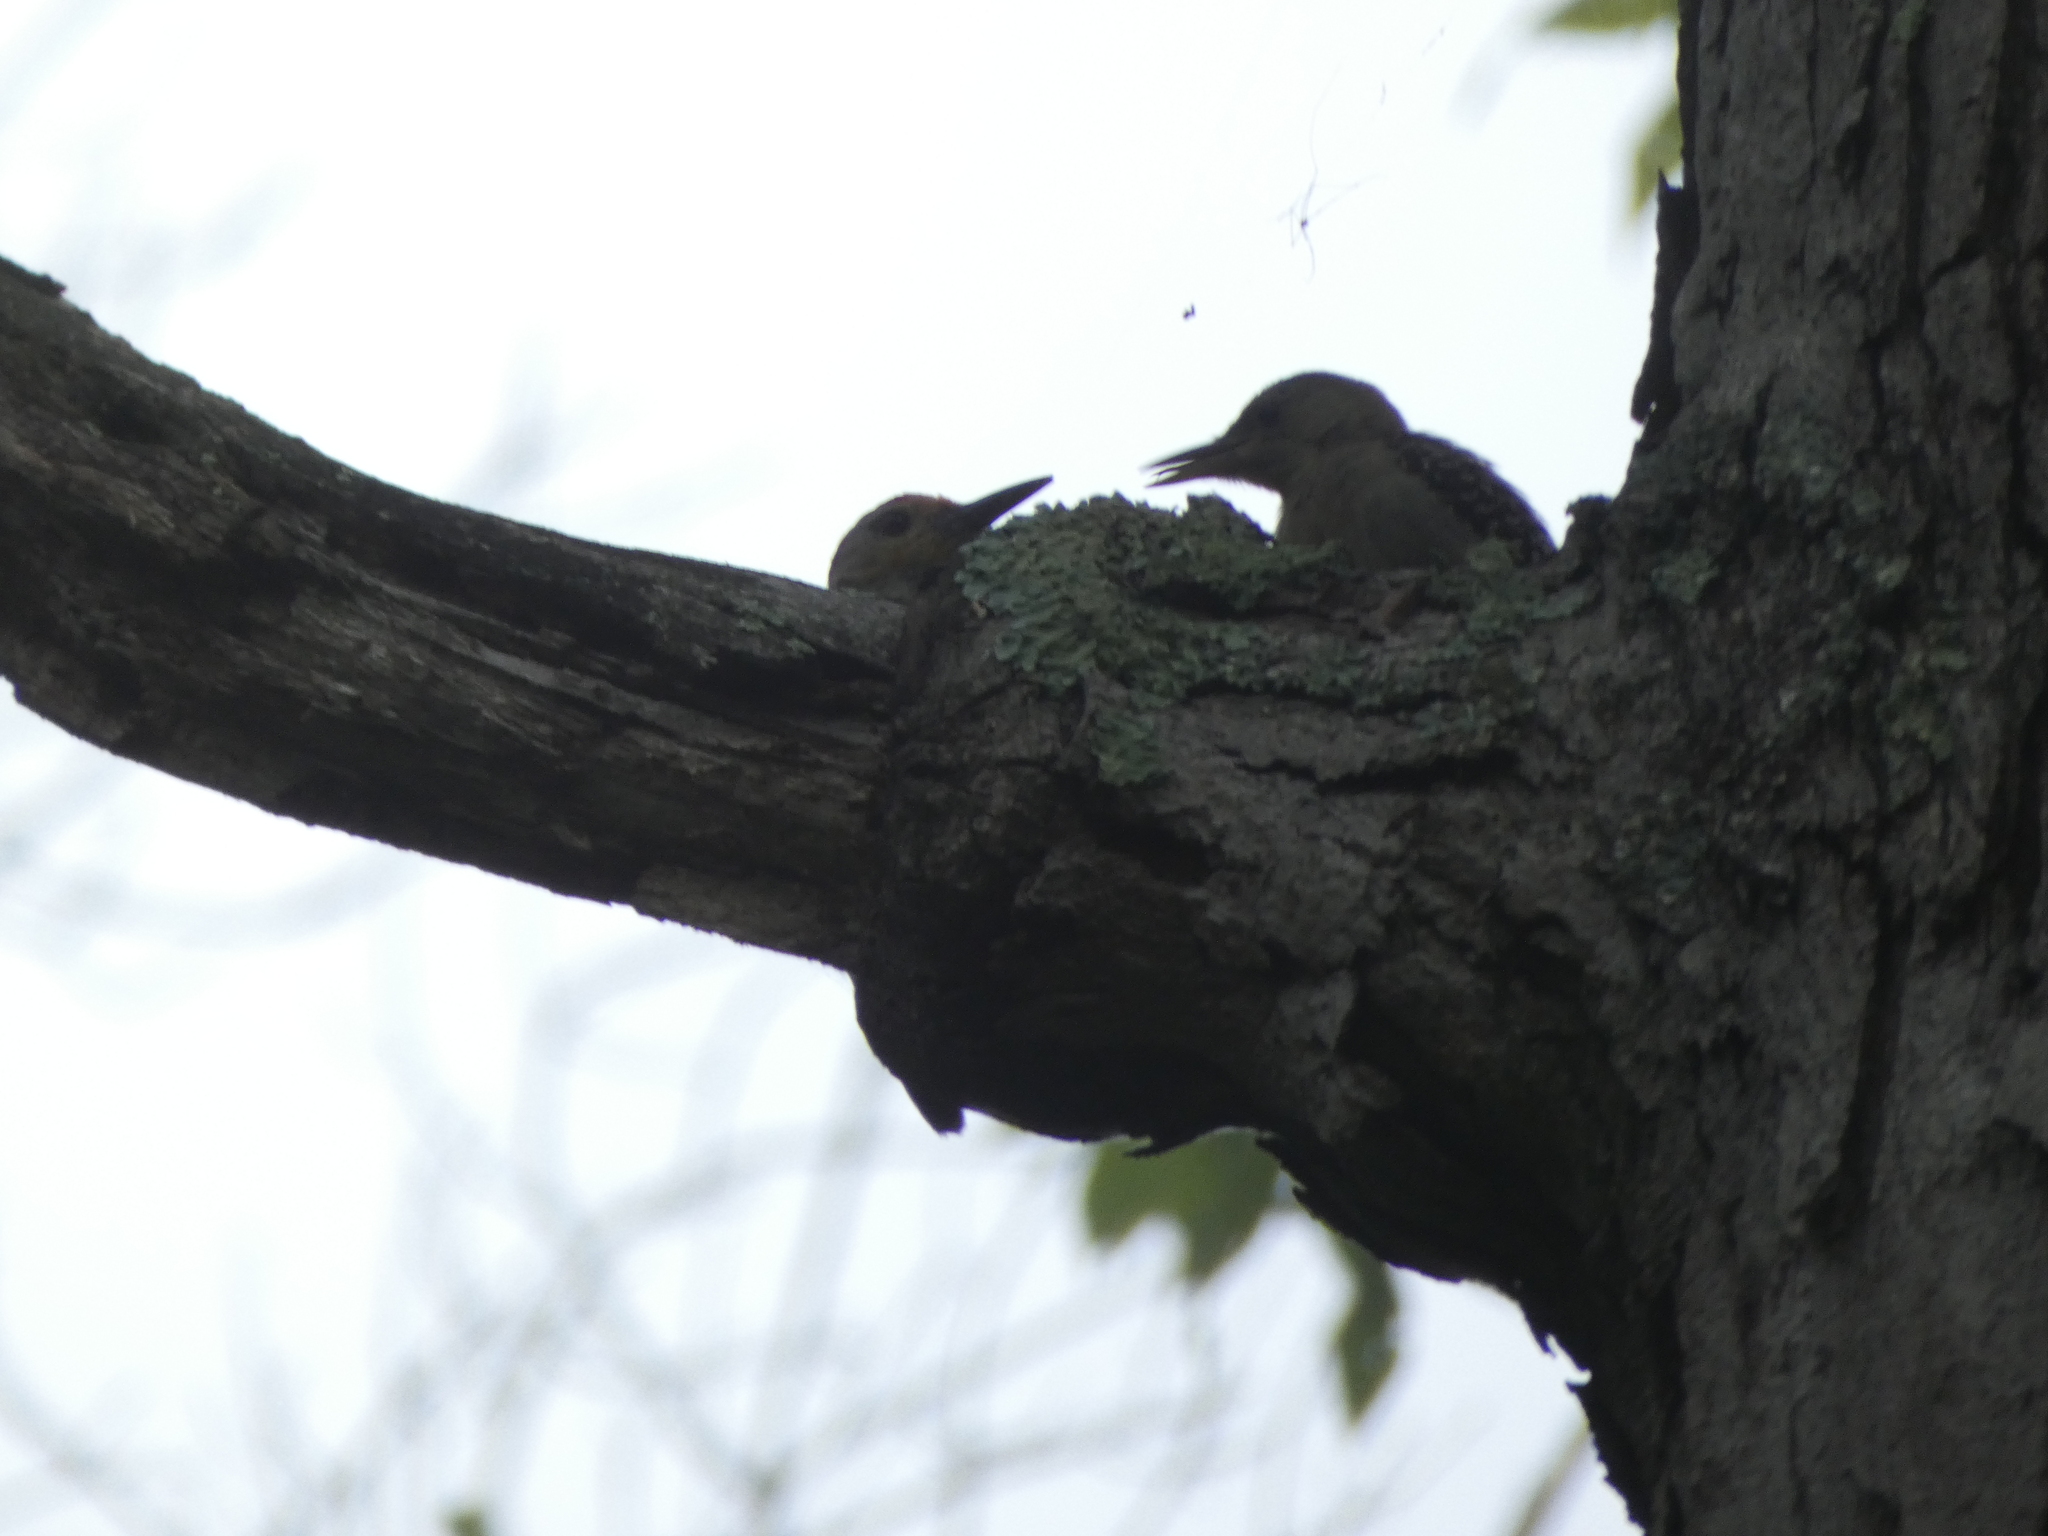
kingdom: Animalia
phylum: Chordata
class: Aves
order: Piciformes
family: Picidae
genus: Melanerpes
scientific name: Melanerpes carolinus
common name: Red-bellied woodpecker
